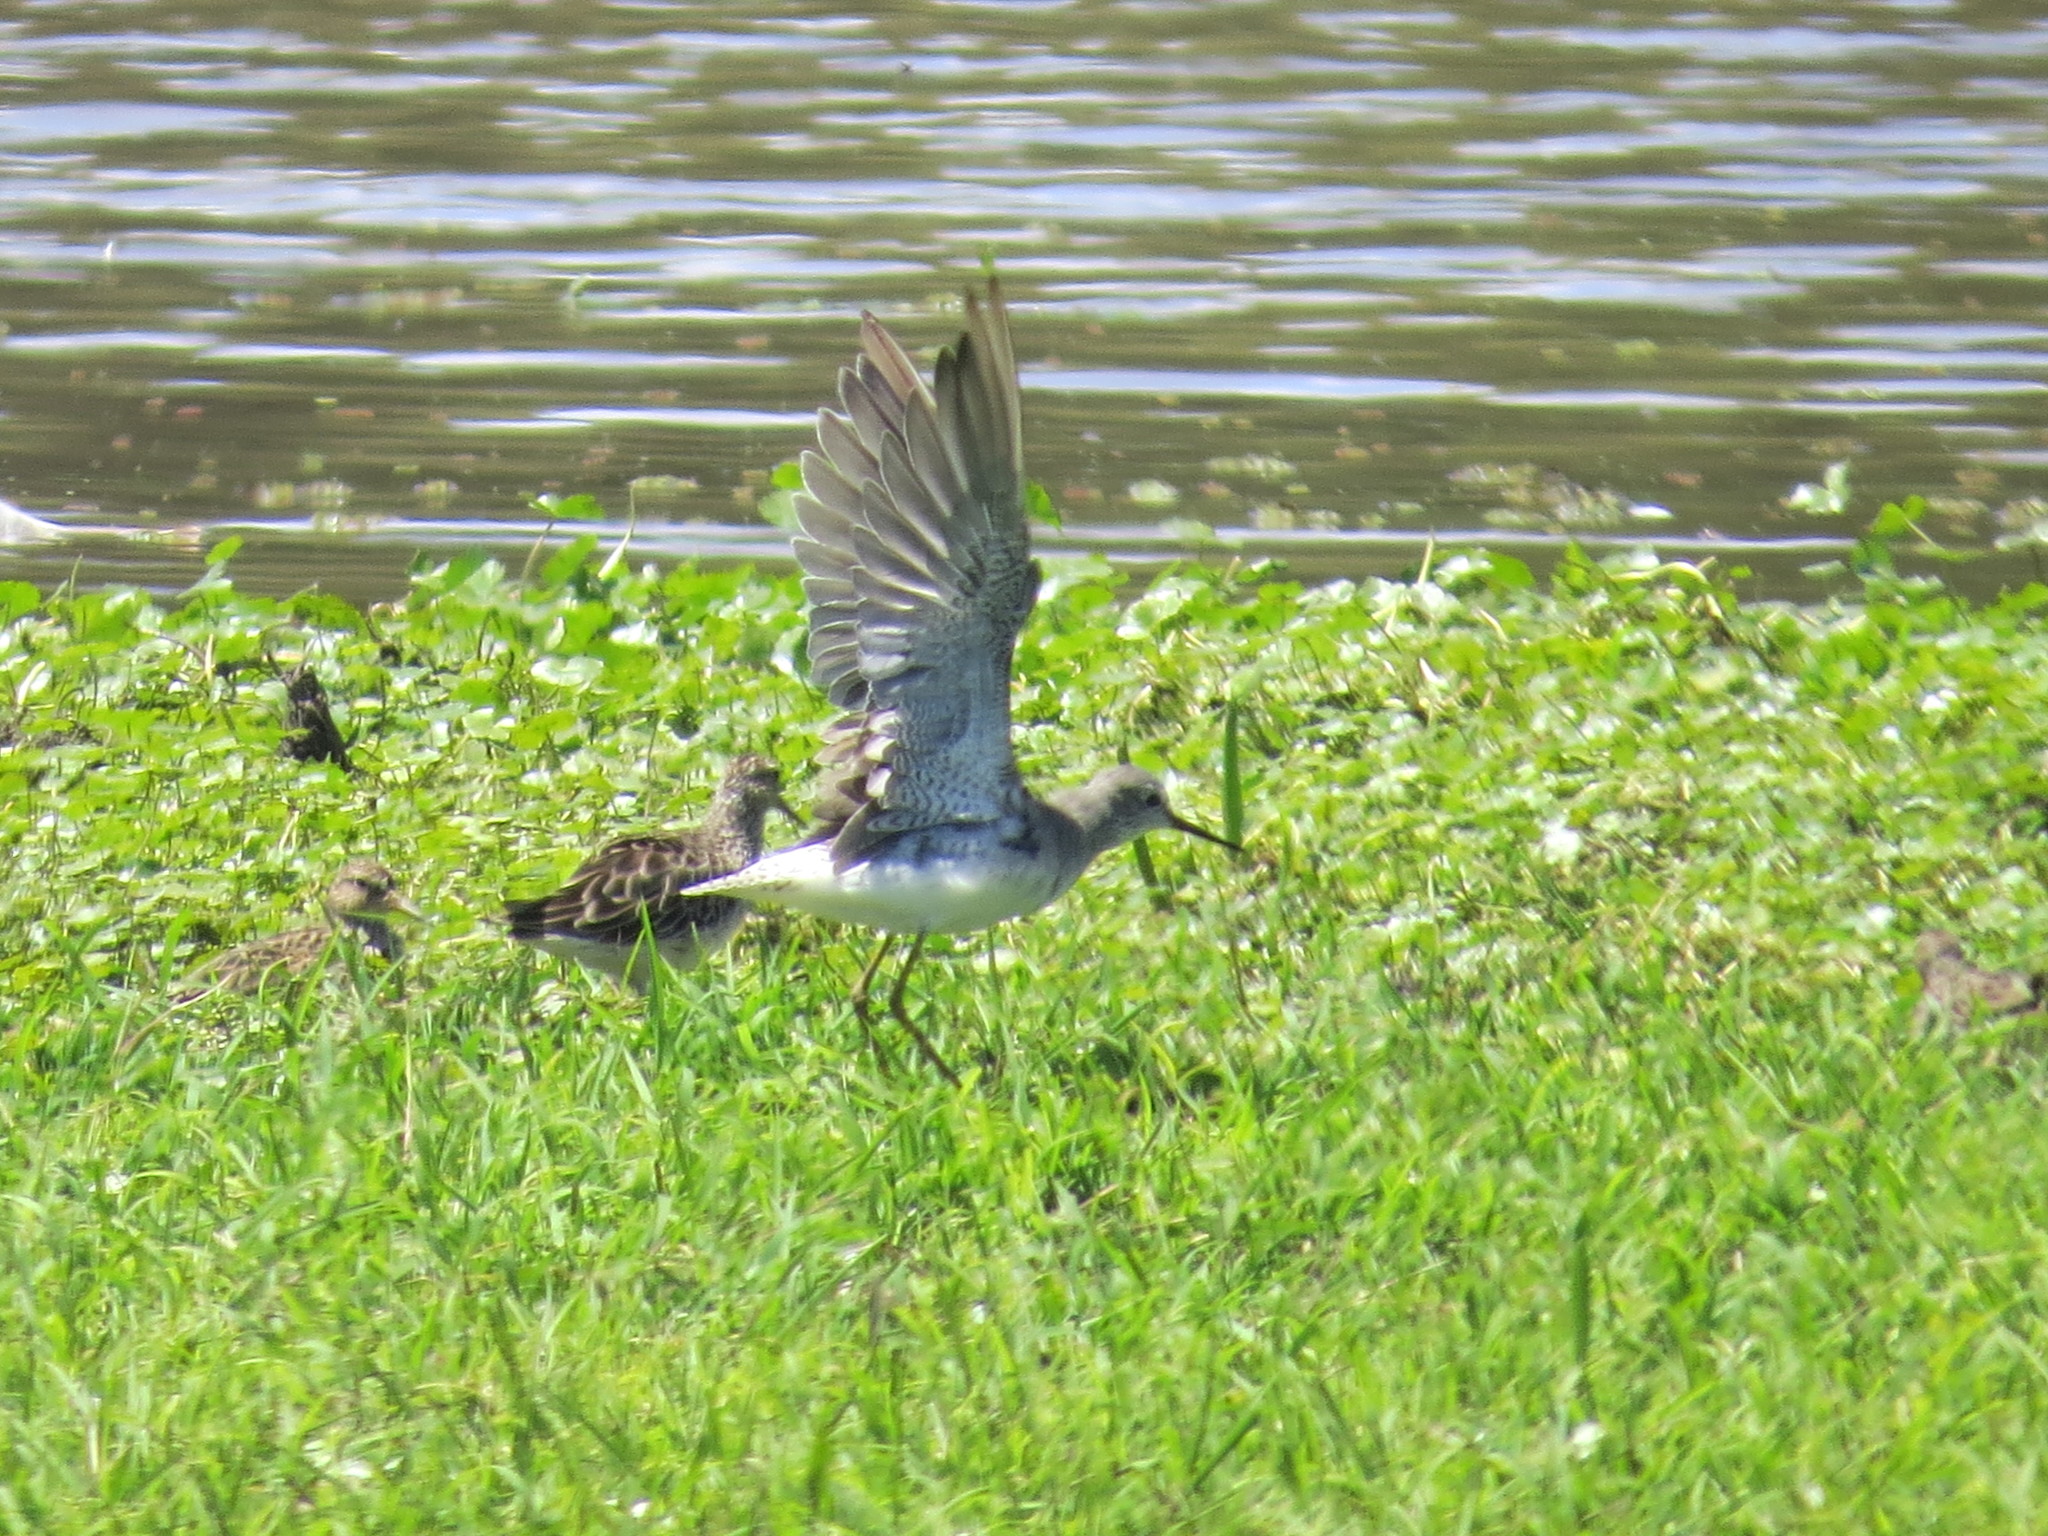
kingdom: Animalia
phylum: Chordata
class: Aves
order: Charadriiformes
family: Scolopacidae
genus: Tringa
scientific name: Tringa flavipes
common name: Lesser yellowlegs
